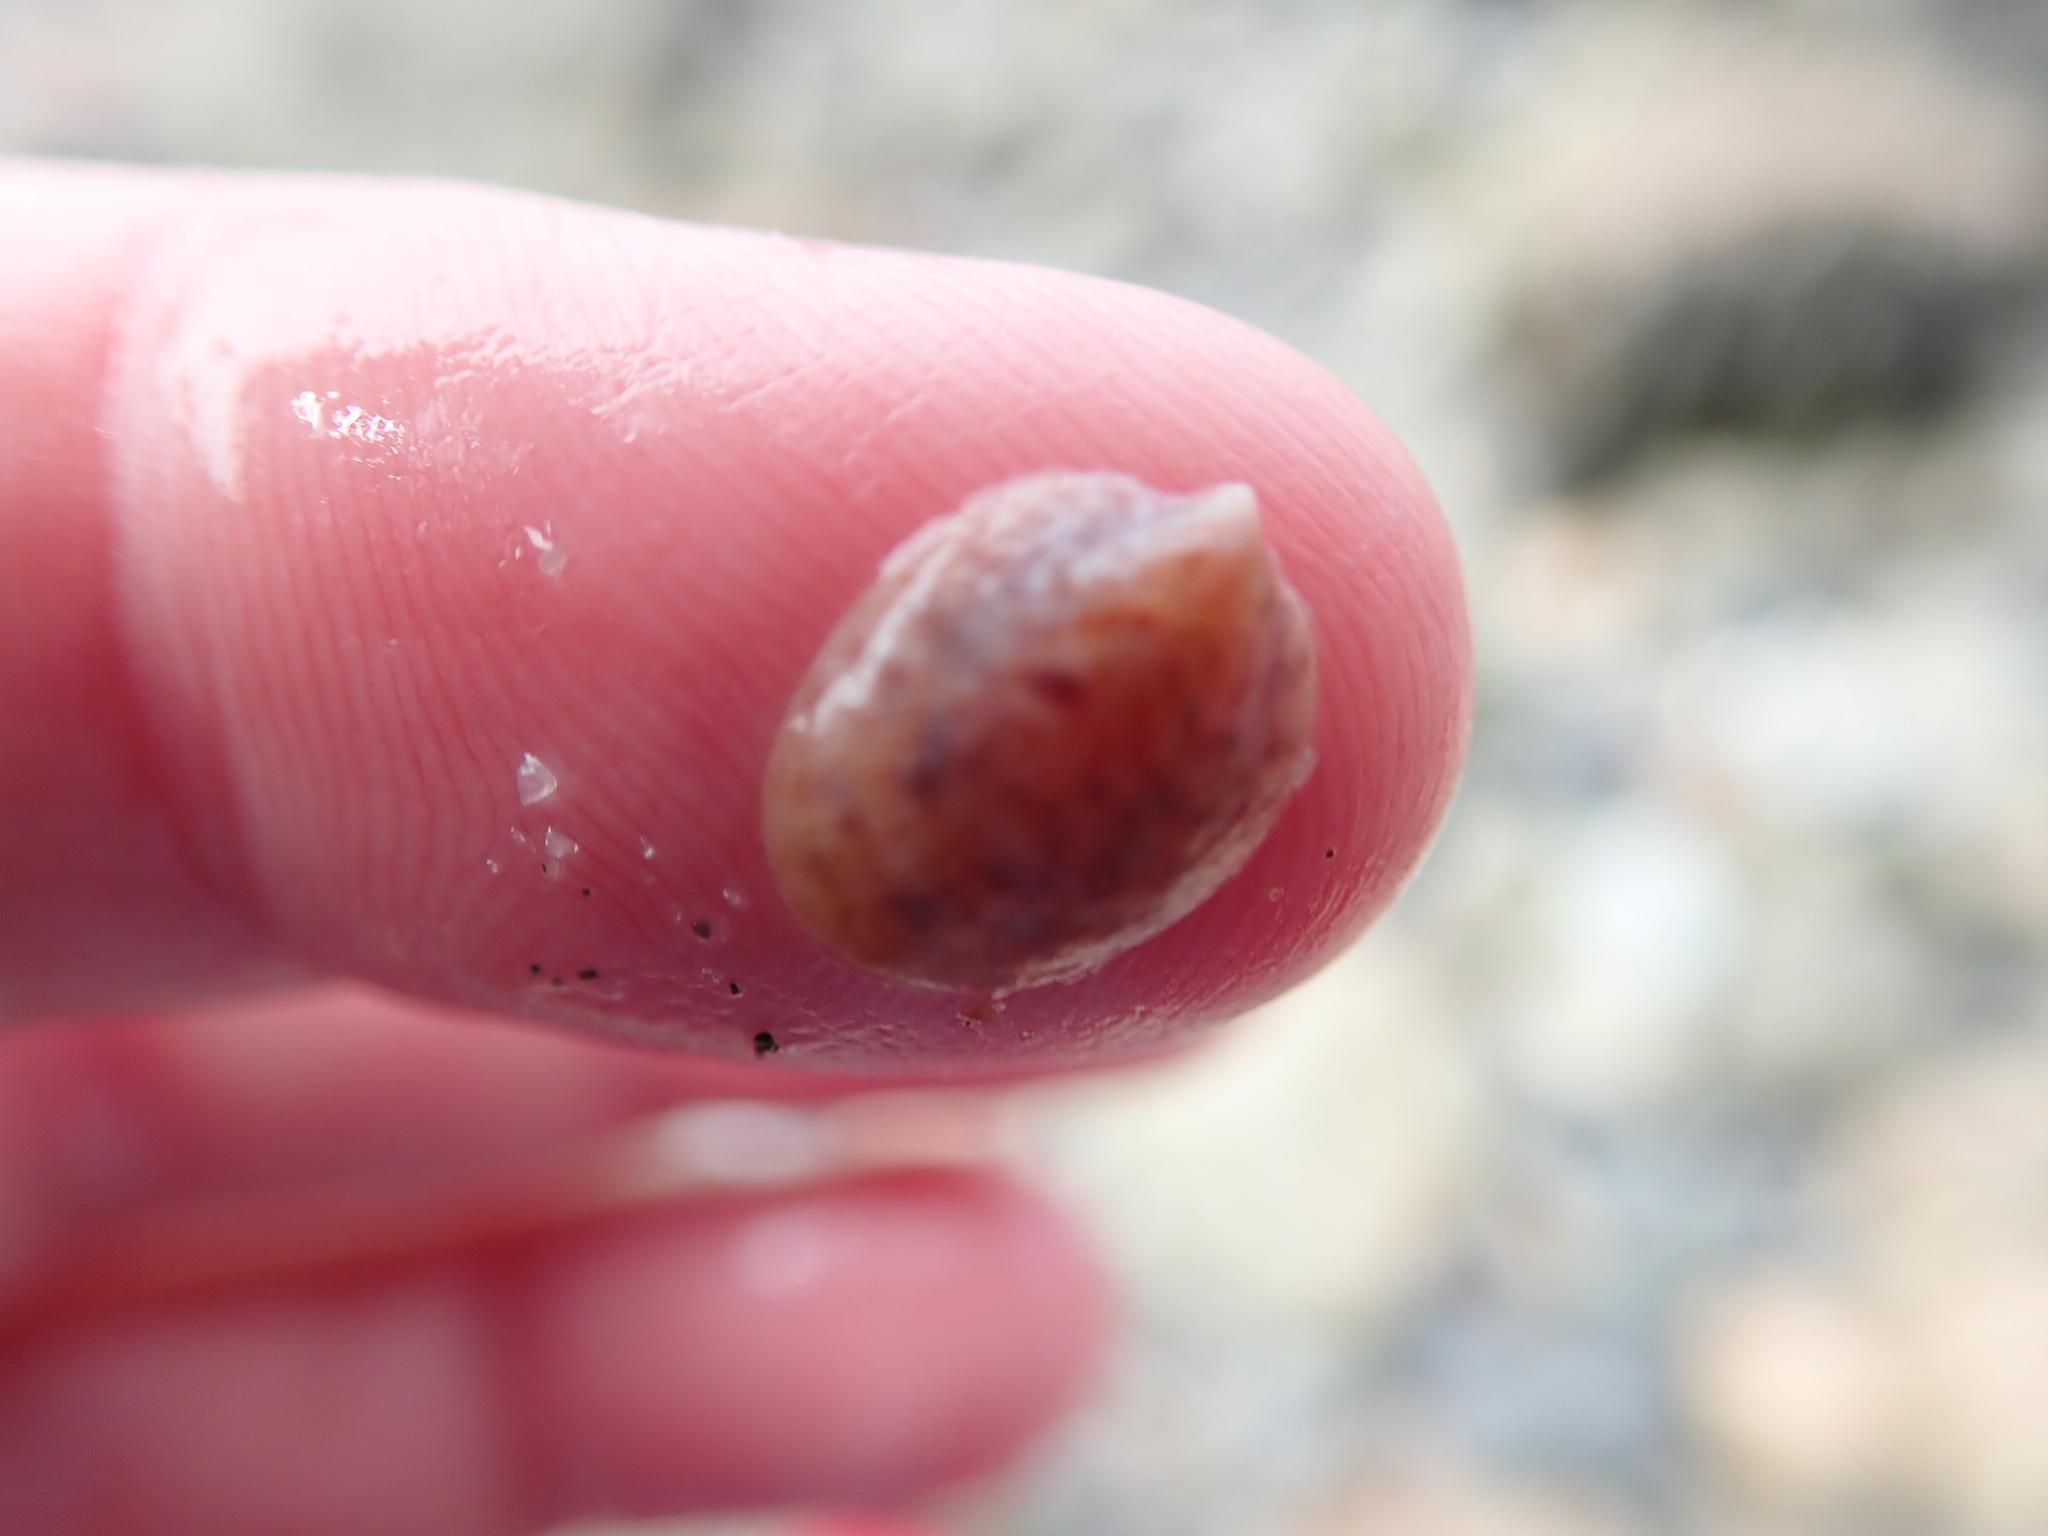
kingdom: Animalia
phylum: Mollusca
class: Gastropoda
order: Littorinimorpha
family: Calyptraeidae
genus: Crepidula
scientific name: Crepidula fornicata
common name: Slipper limpet
